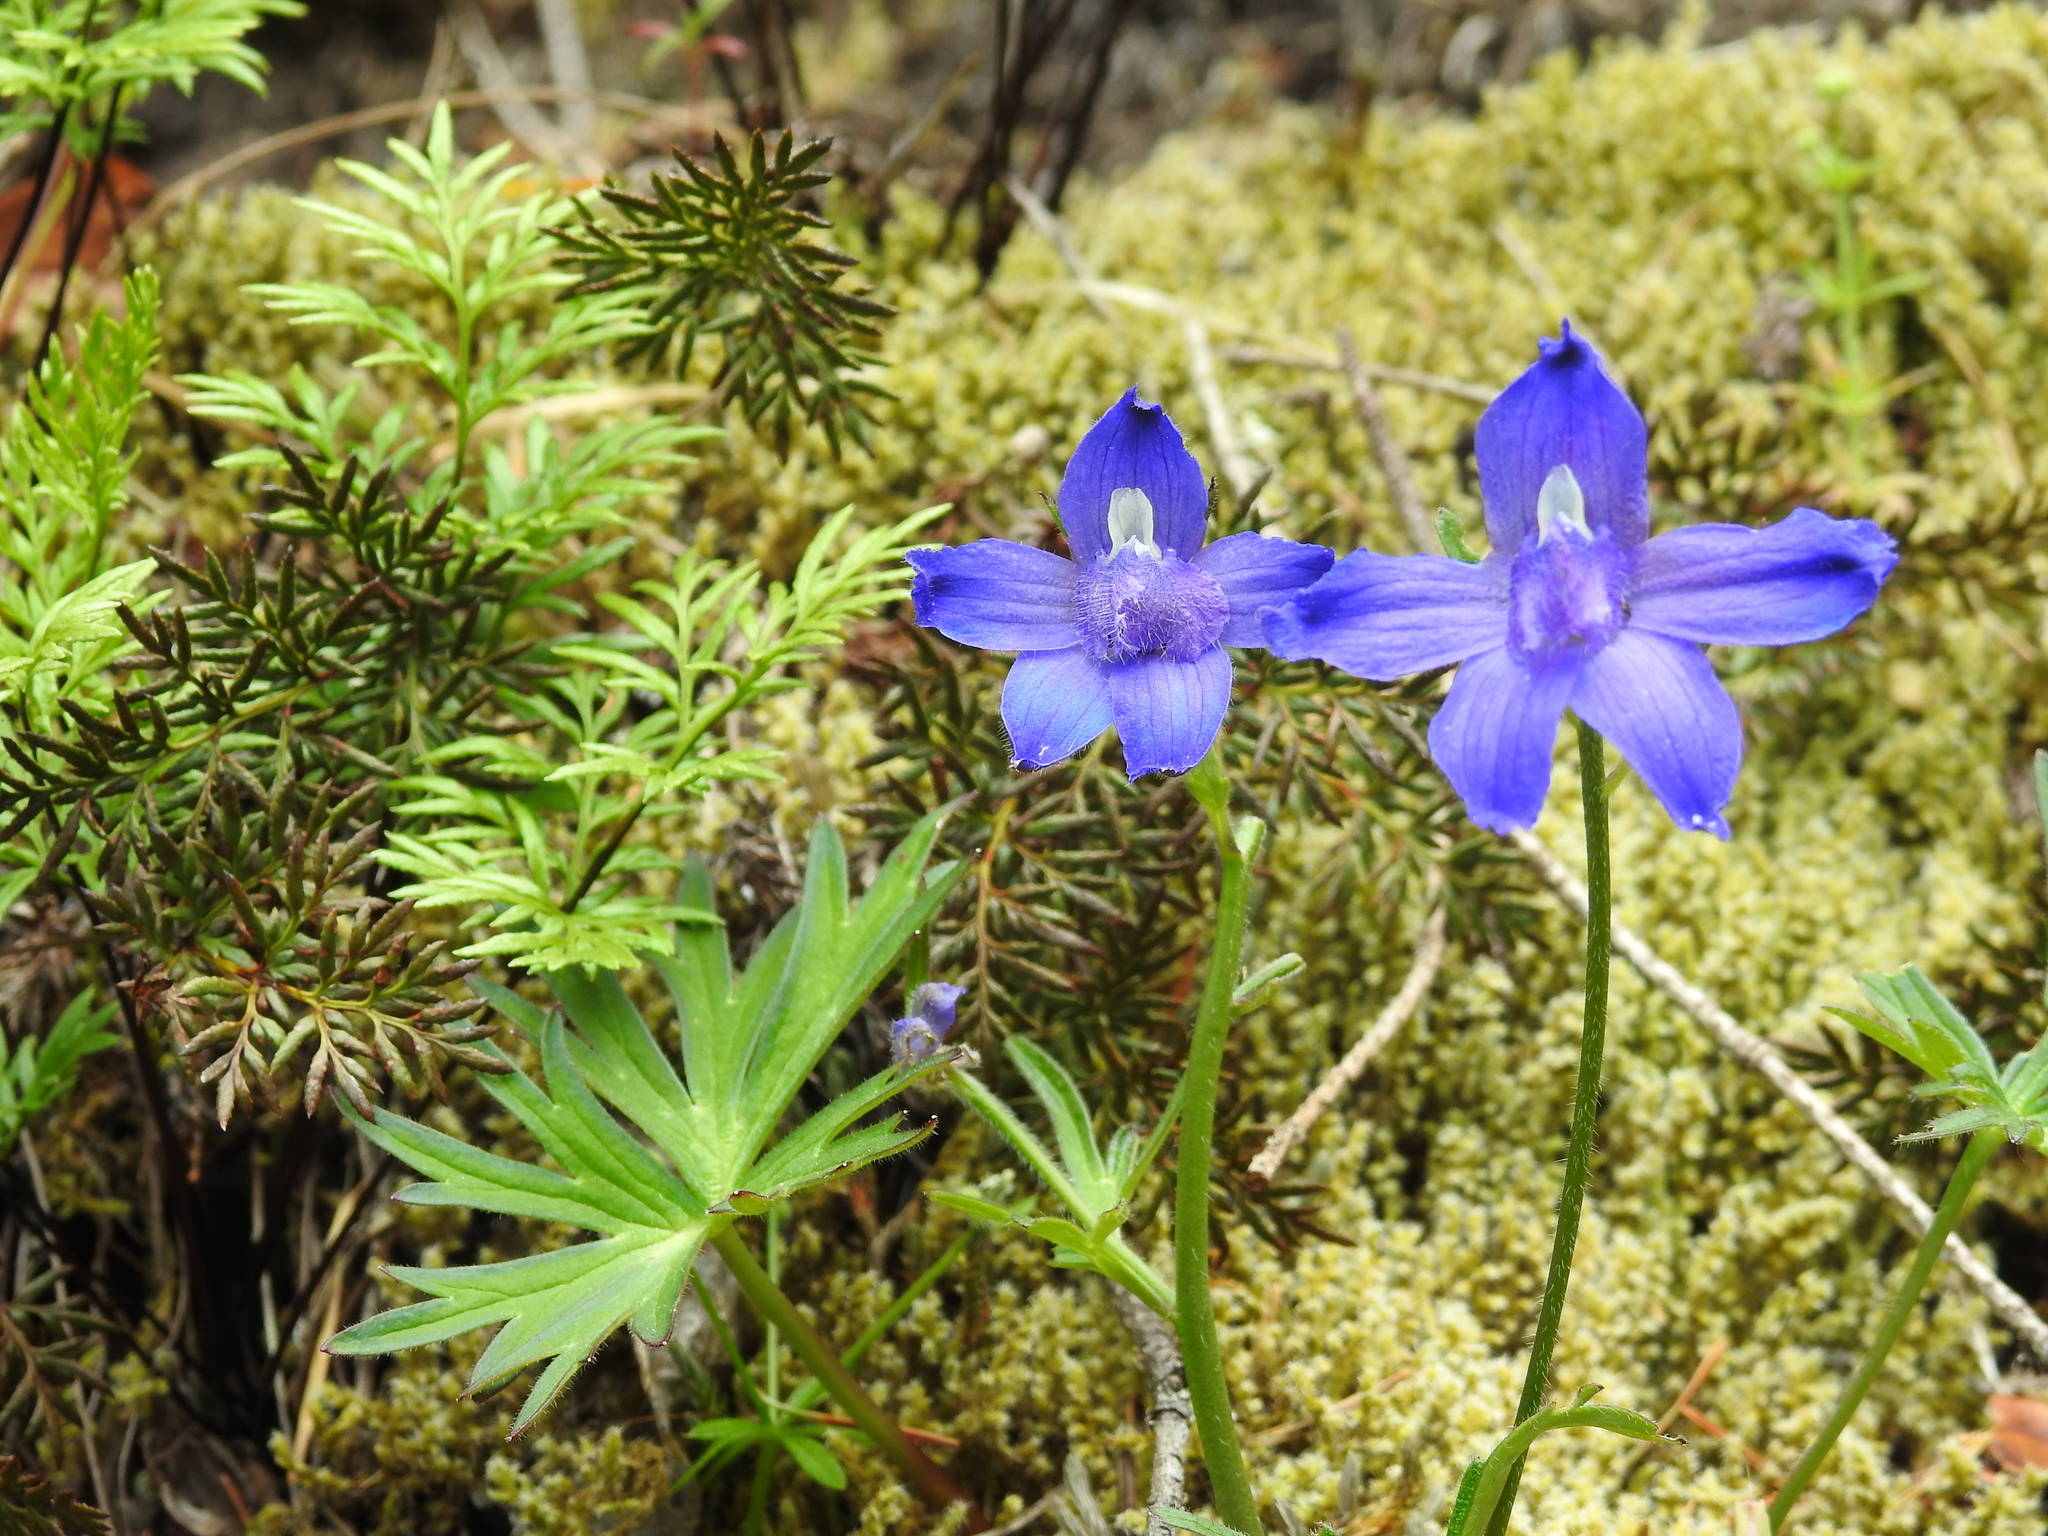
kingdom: Plantae
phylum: Tracheophyta
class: Magnoliopsida
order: Ranunculales
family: Ranunculaceae
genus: Delphinium
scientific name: Delphinium menziesii
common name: Menzies's larkspur
